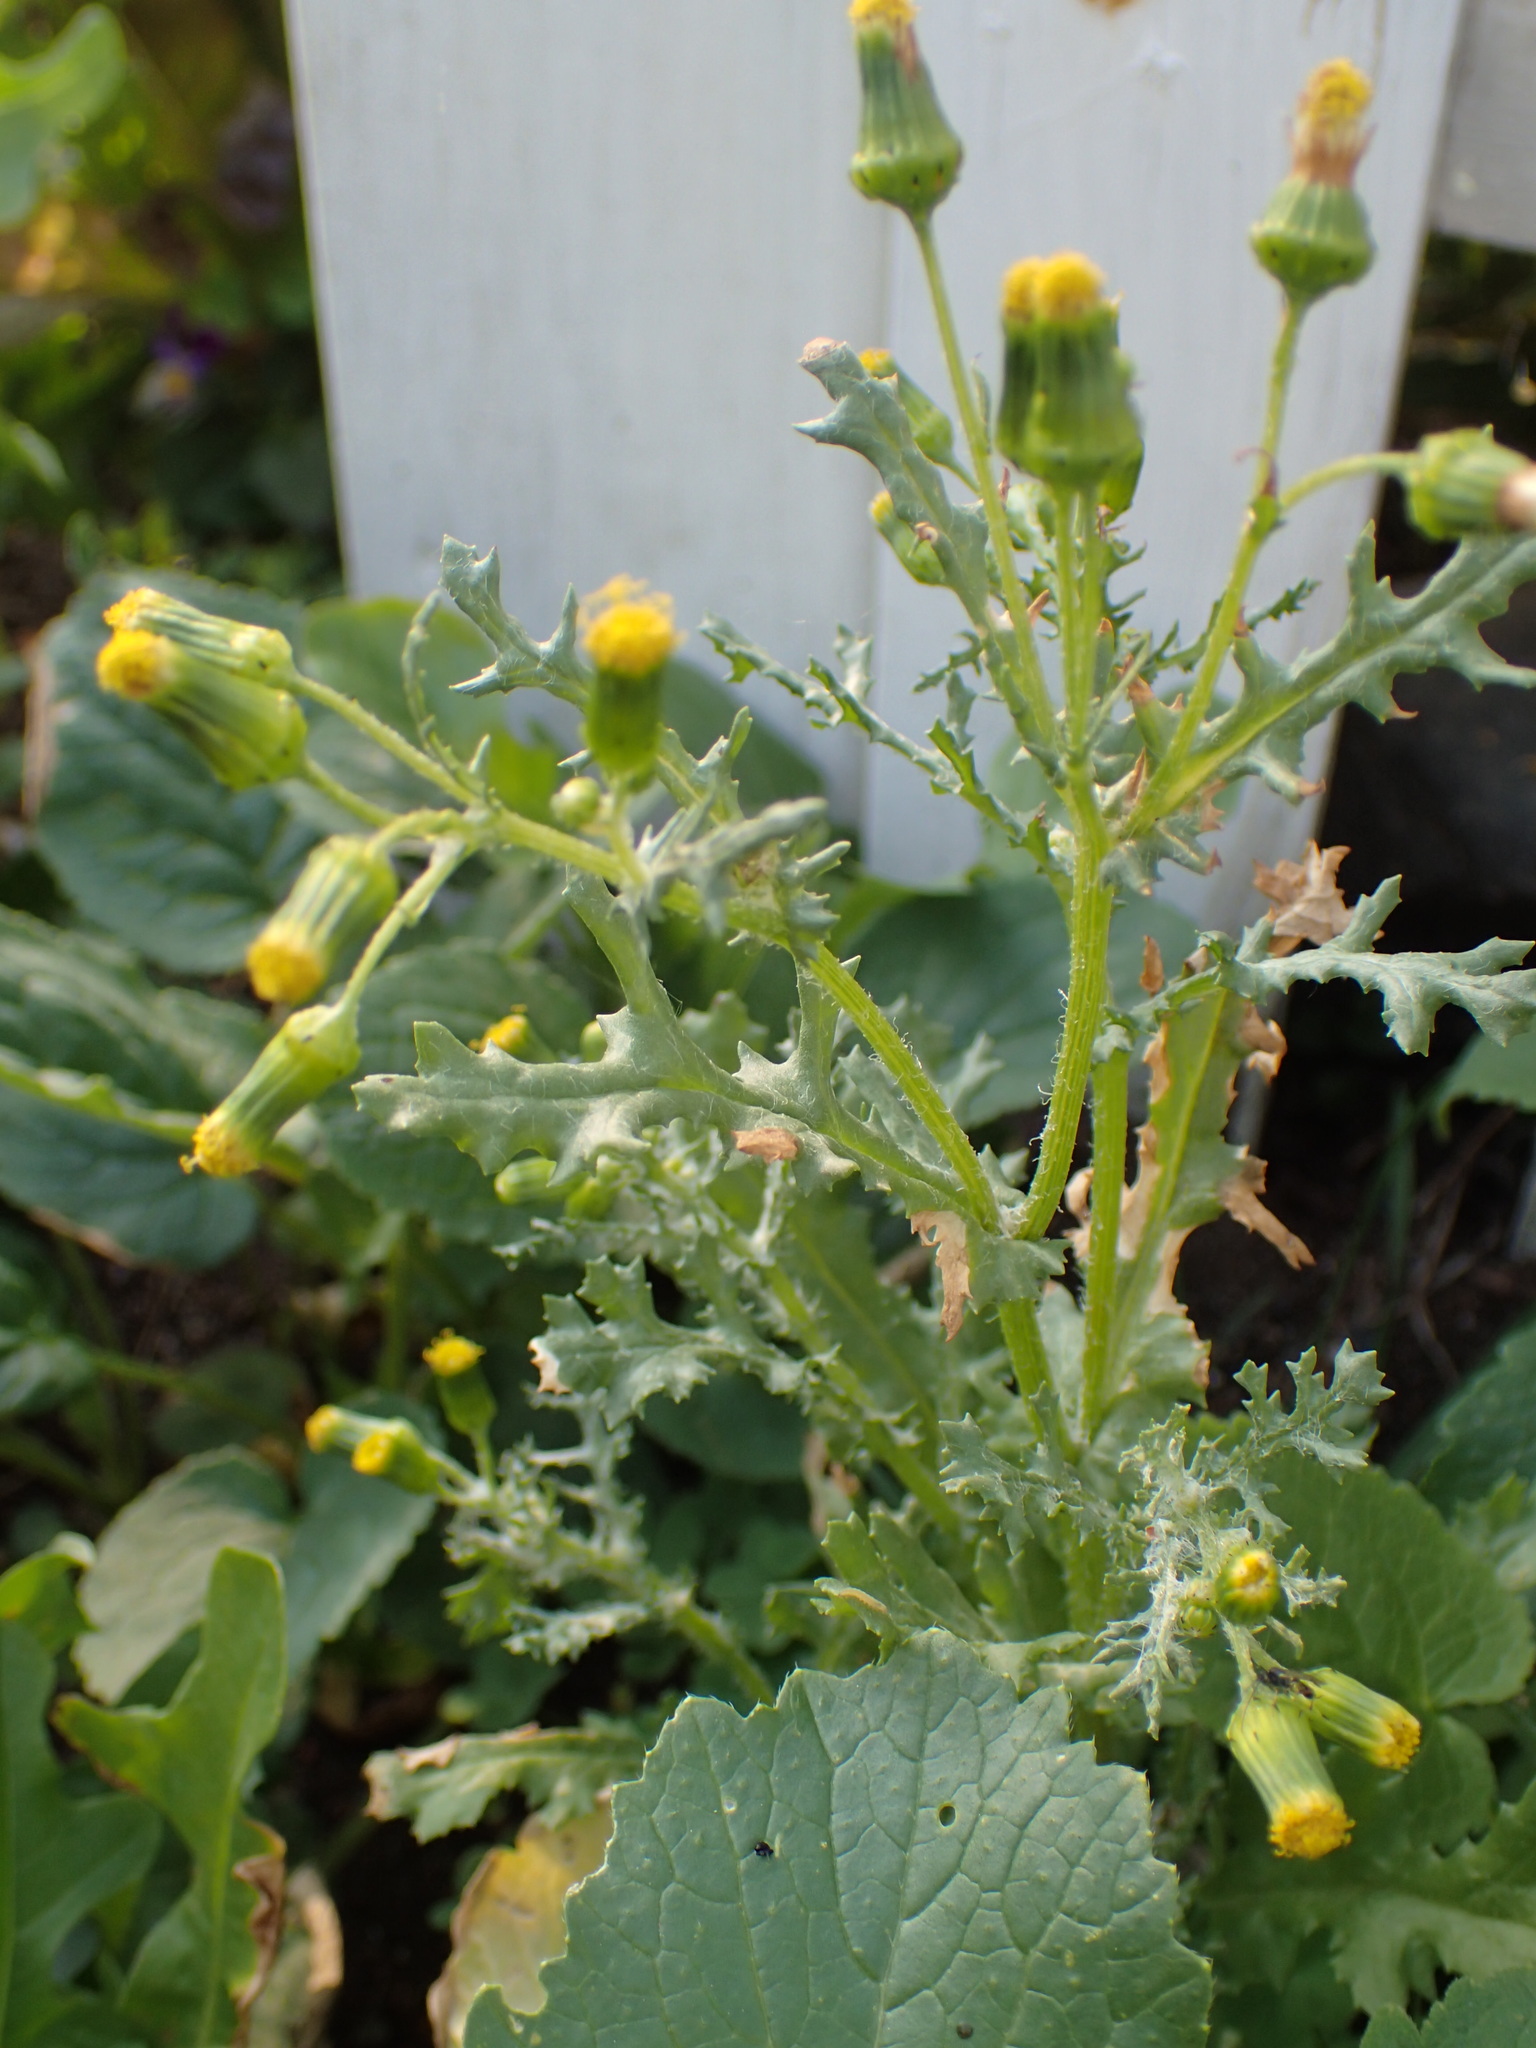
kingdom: Plantae
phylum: Tracheophyta
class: Magnoliopsida
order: Asterales
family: Asteraceae
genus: Senecio
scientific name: Senecio vulgaris
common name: Old-man-in-the-spring
